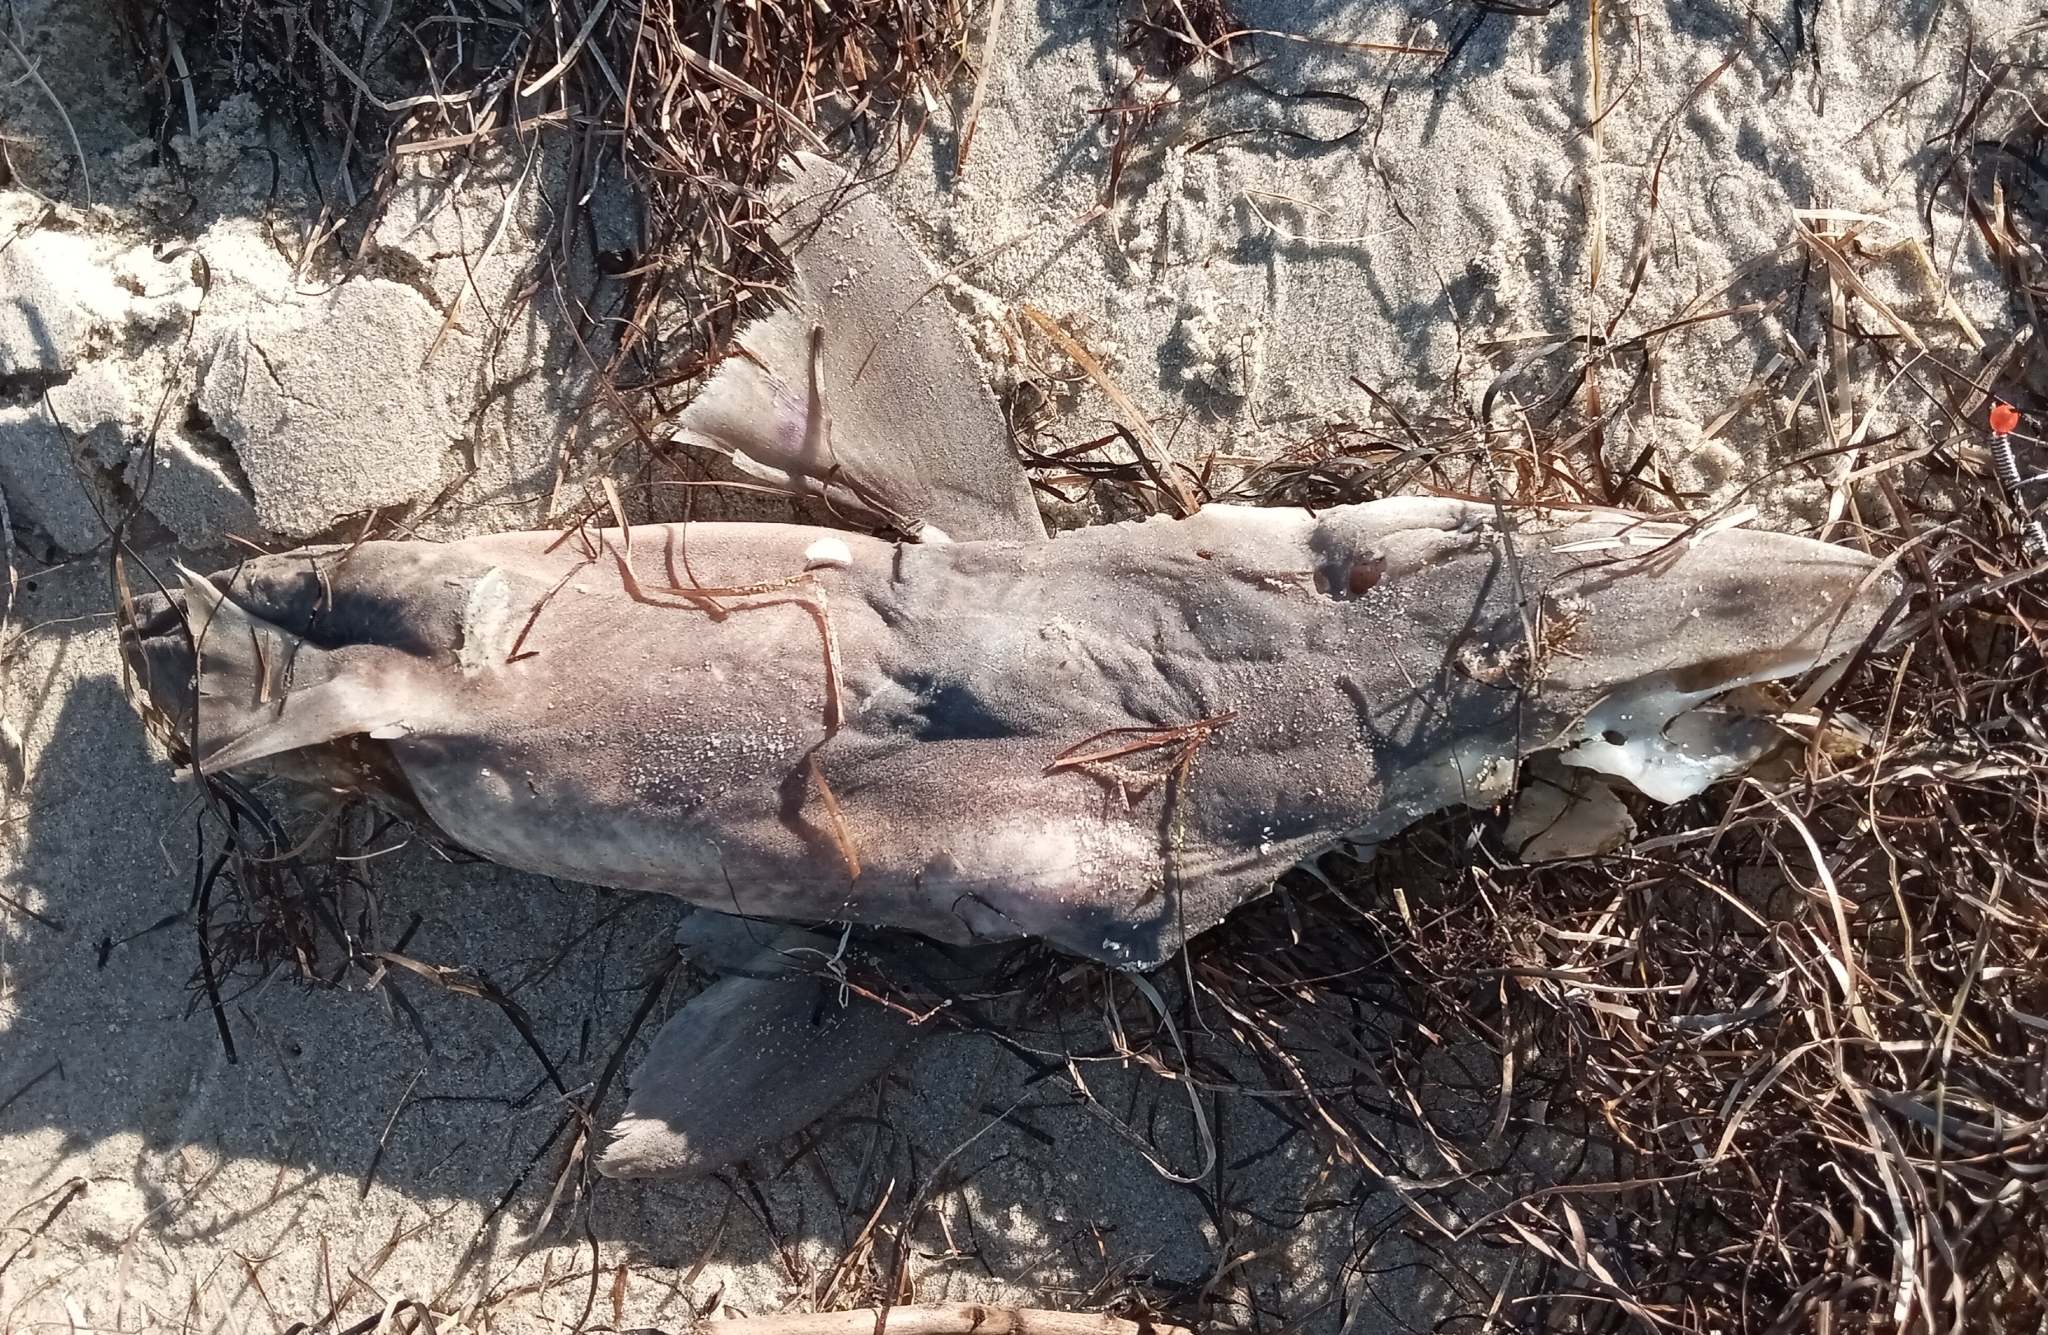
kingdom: Animalia
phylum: Chordata
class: Elasmobranchii
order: Squaliformes
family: Squalidae
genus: Squalus
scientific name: Squalus acanthias
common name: Spurdog
